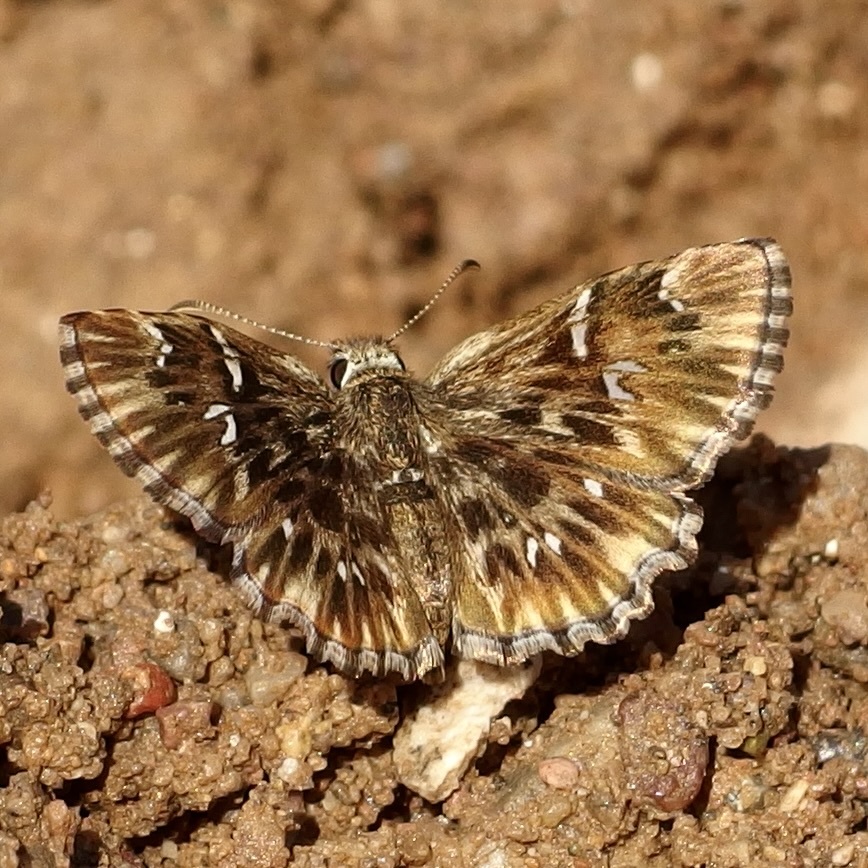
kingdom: Animalia
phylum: Arthropoda
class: Insecta
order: Lepidoptera
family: Hesperiidae
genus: Celotes
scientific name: Celotes nessus
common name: Common streaky-skipper
